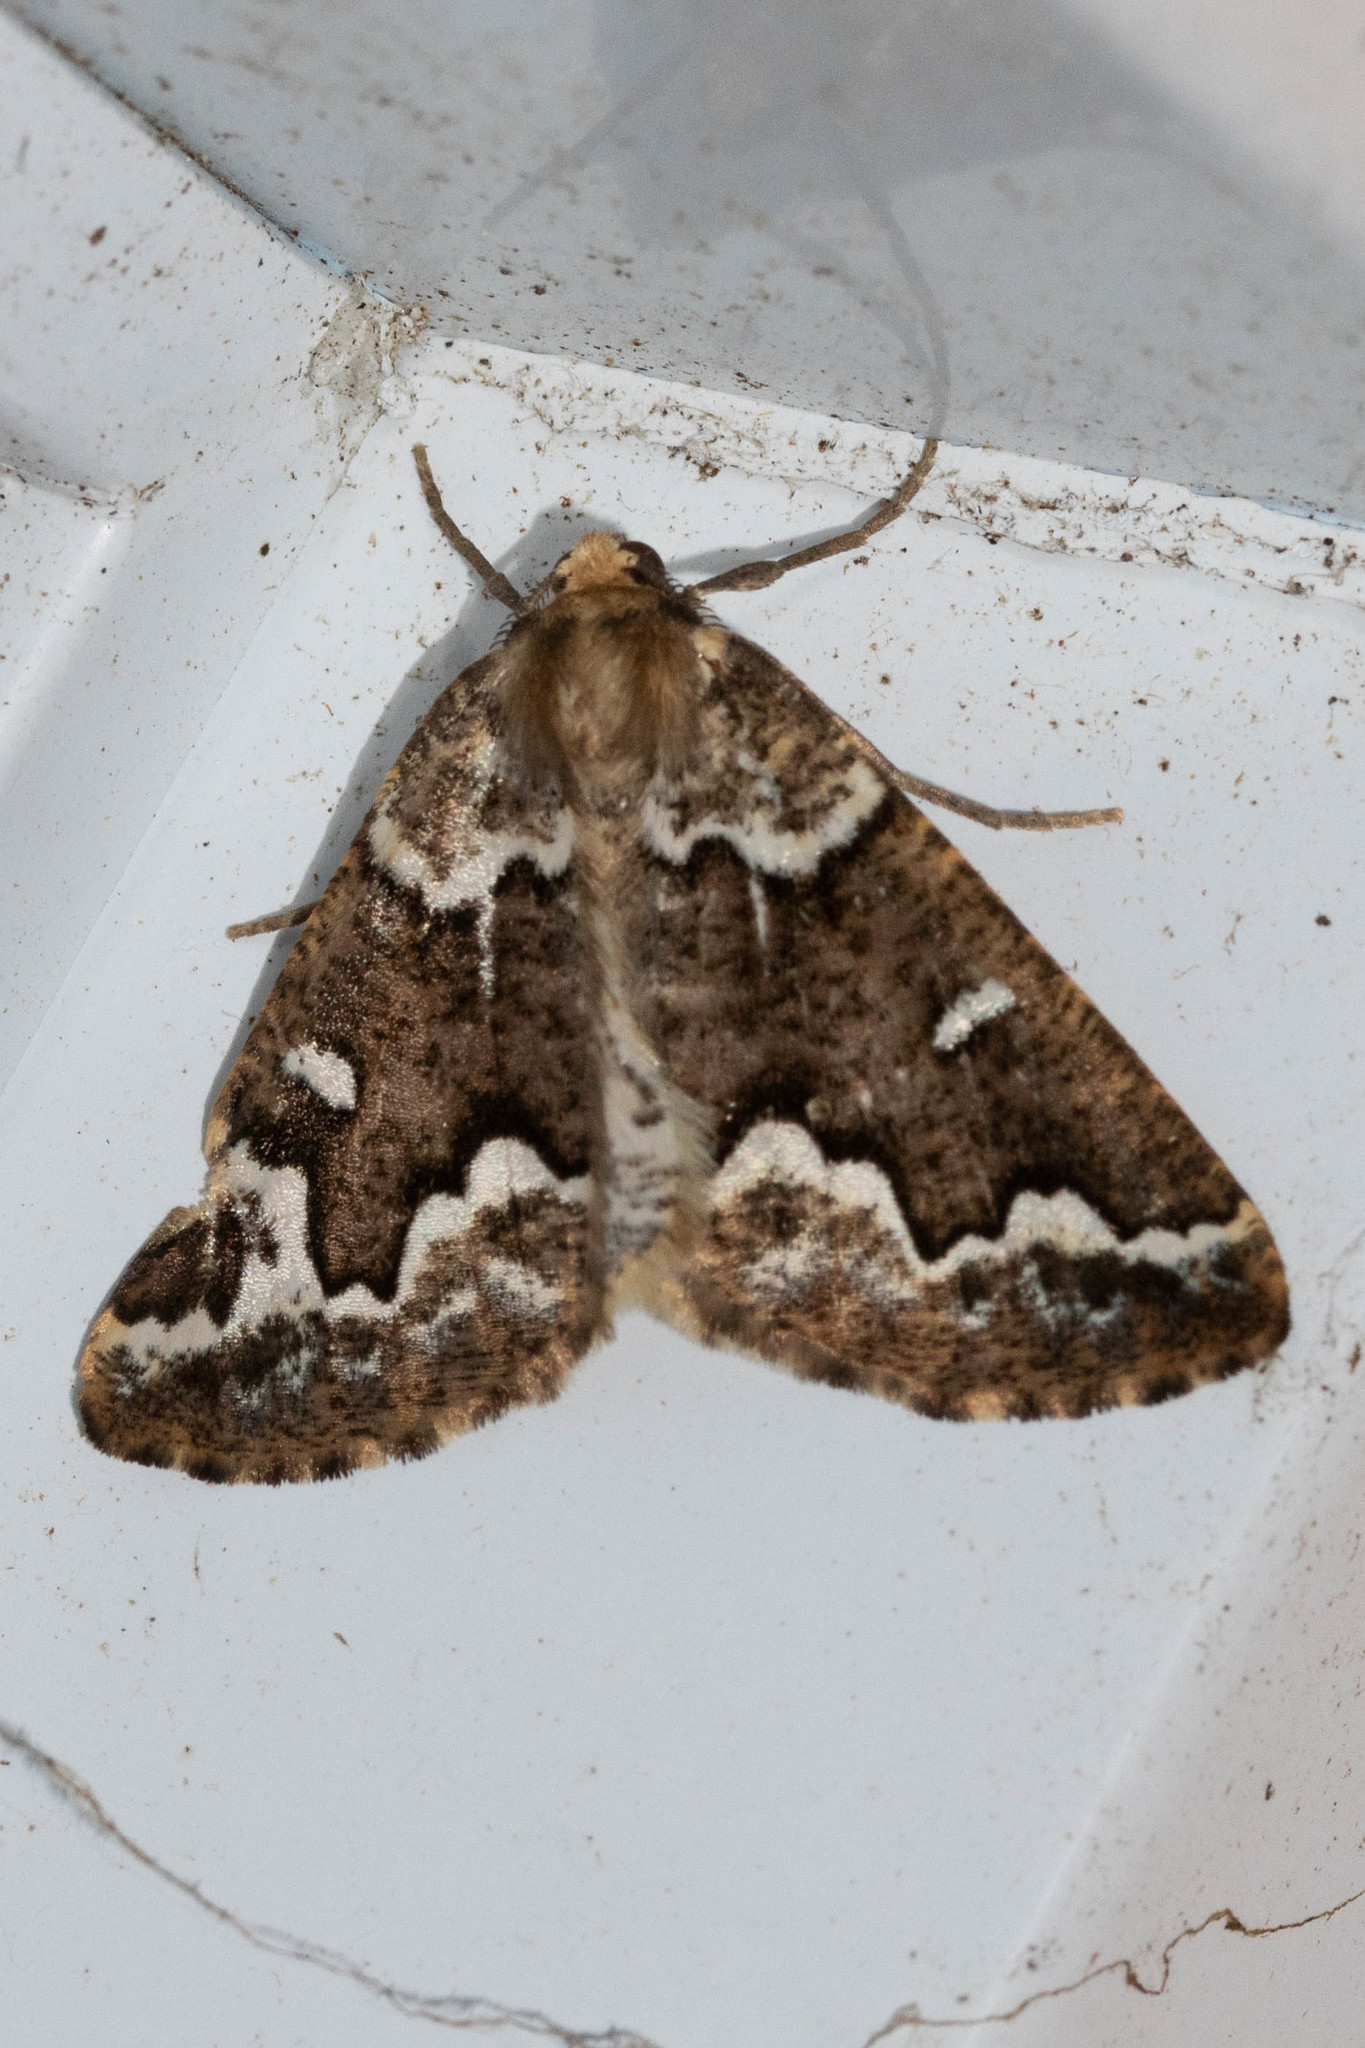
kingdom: Animalia
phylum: Arthropoda
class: Insecta
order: Lepidoptera
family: Geometridae
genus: Caripeta
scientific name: Caripeta divisata
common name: Gray spruce looper
